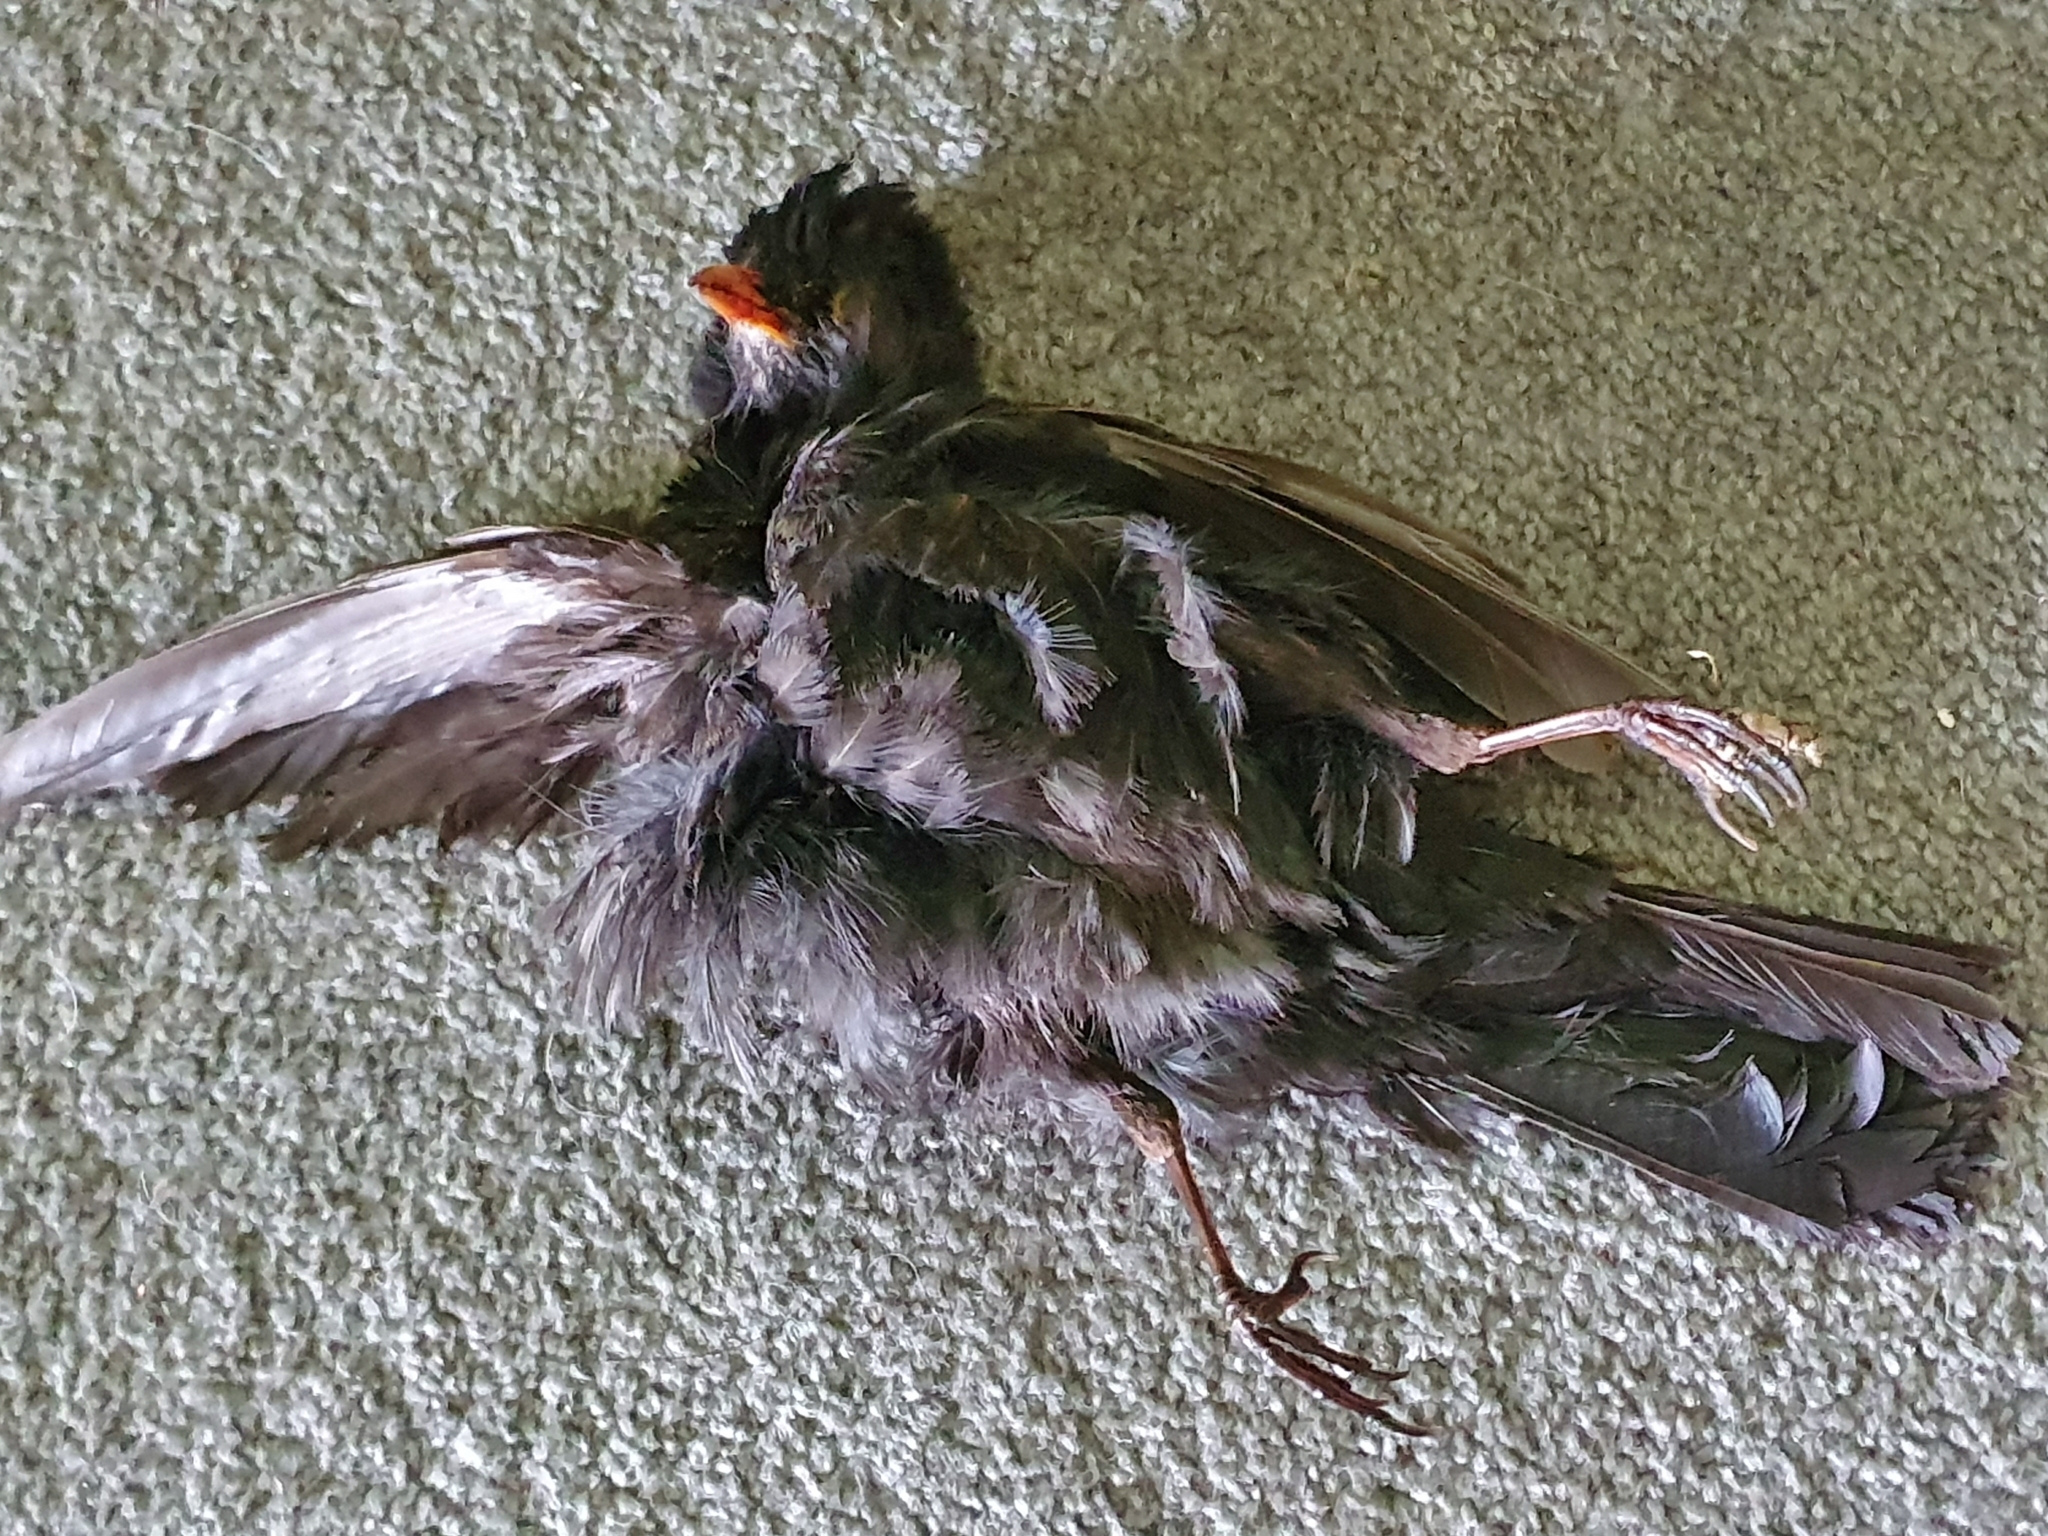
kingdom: Animalia
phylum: Chordata
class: Aves
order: Passeriformes
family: Turdidae
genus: Turdus
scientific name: Turdus merula
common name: Common blackbird
